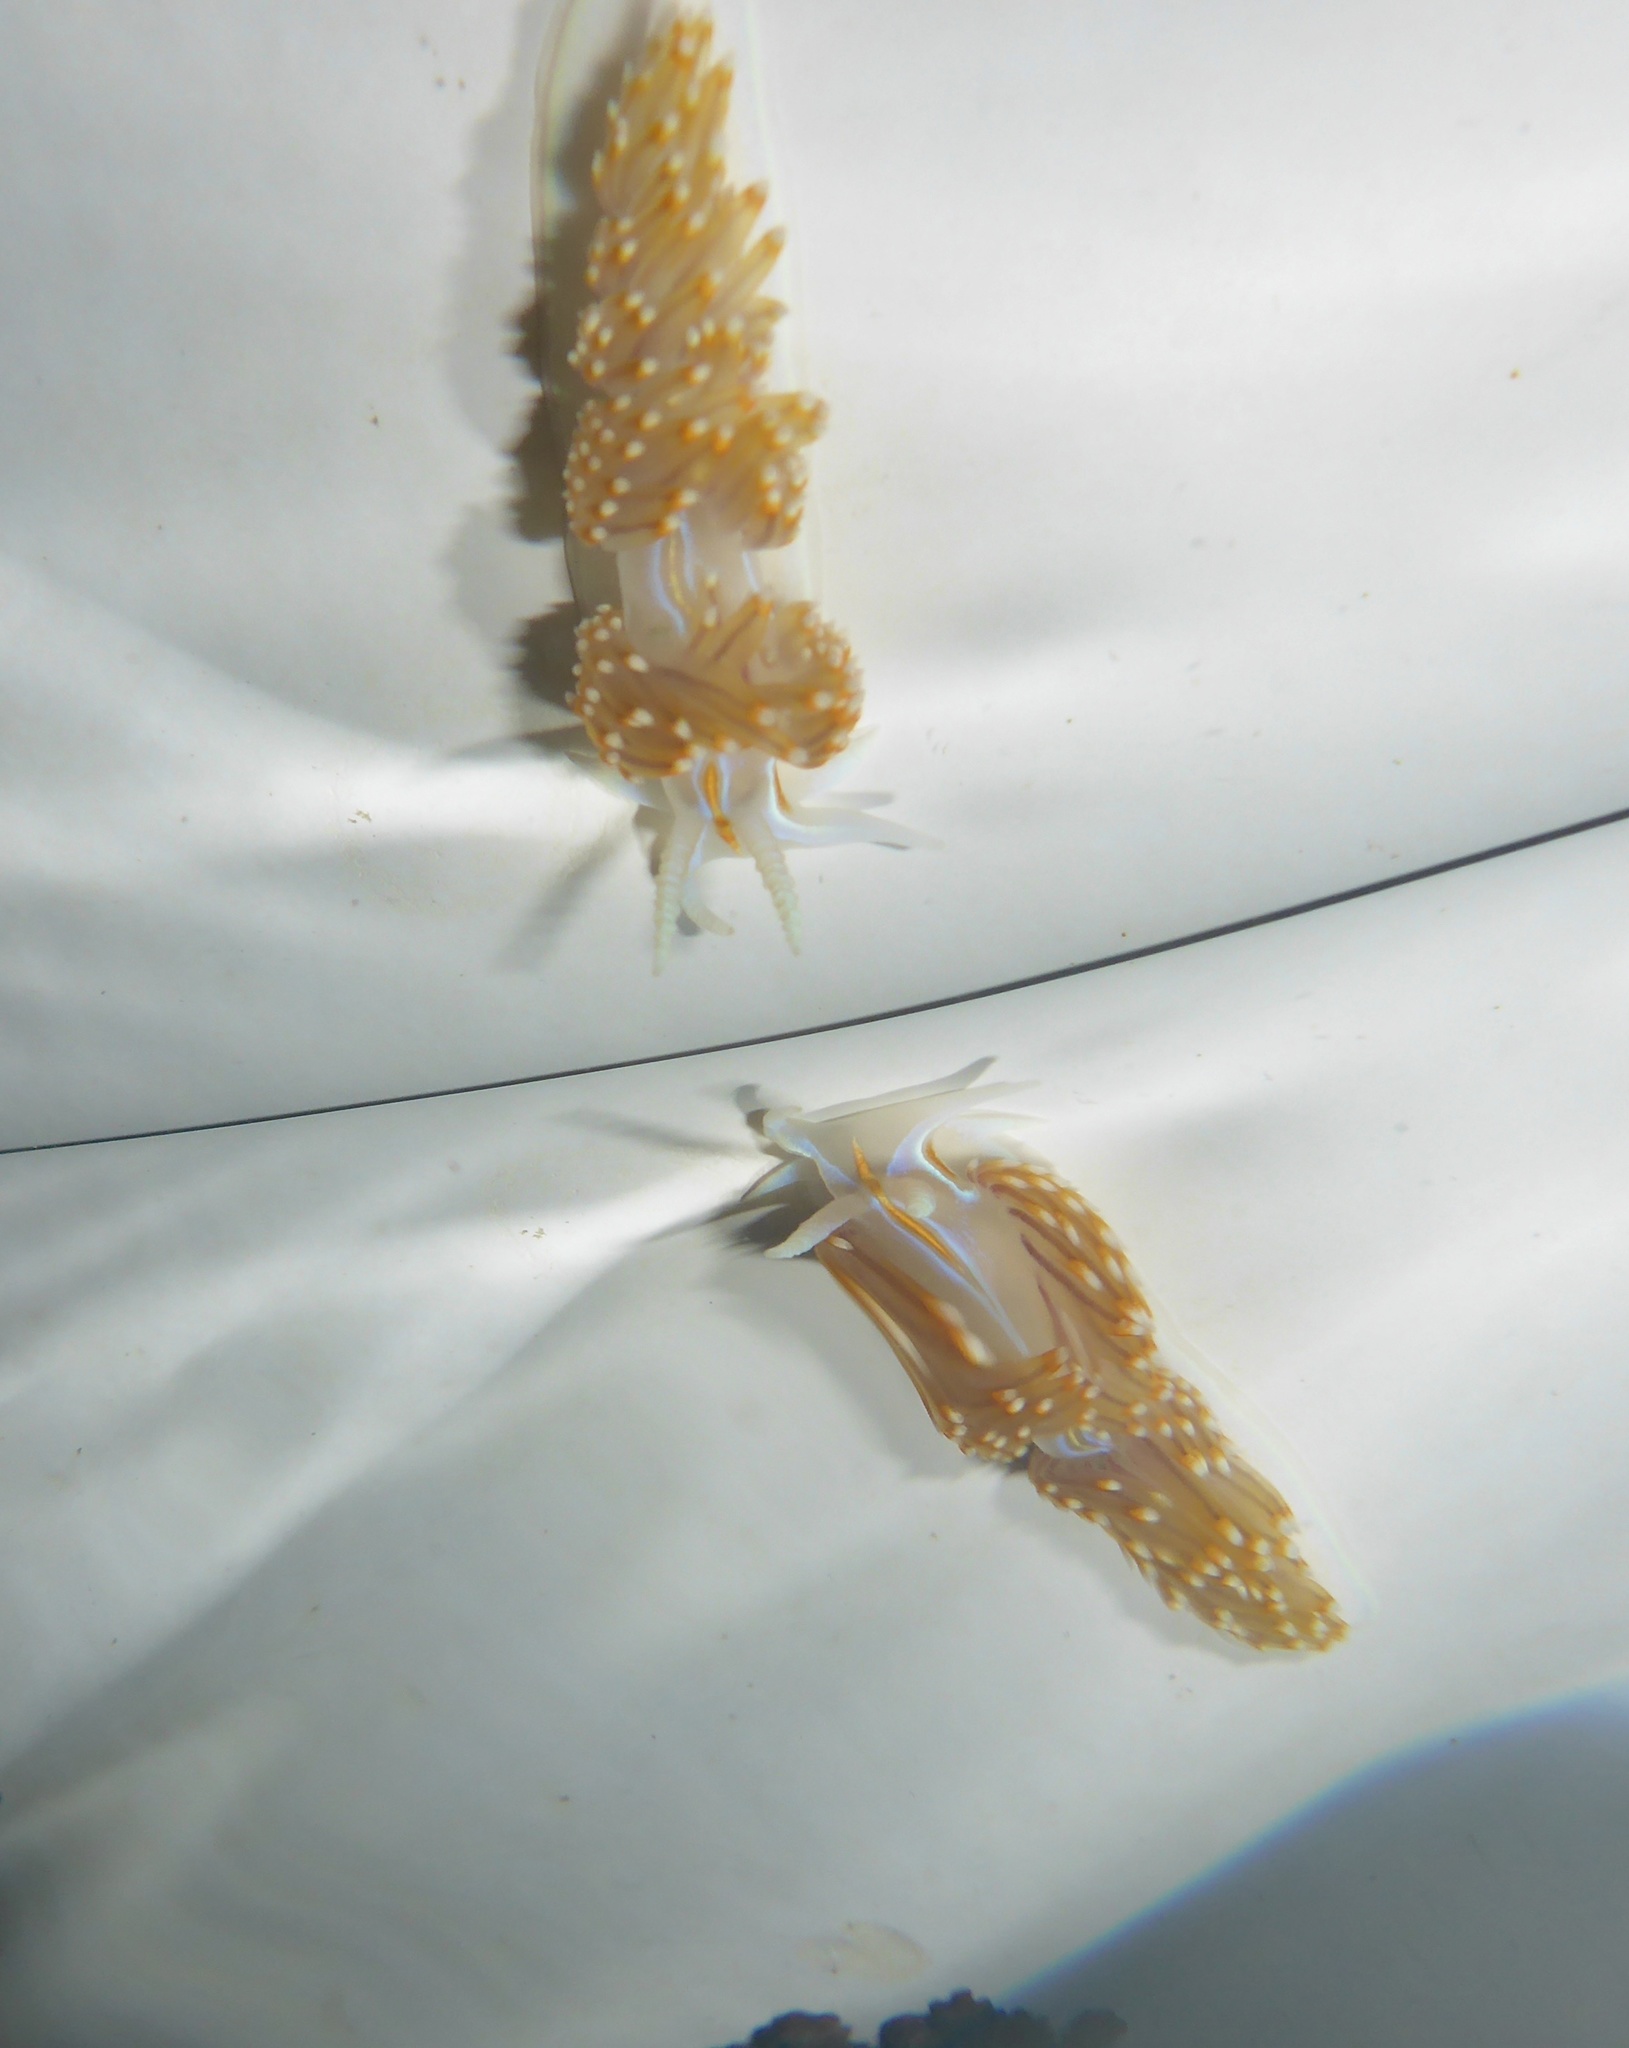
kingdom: Animalia
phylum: Mollusca
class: Gastropoda
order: Nudibranchia
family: Myrrhinidae
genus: Hermissenda
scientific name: Hermissenda opalescens
